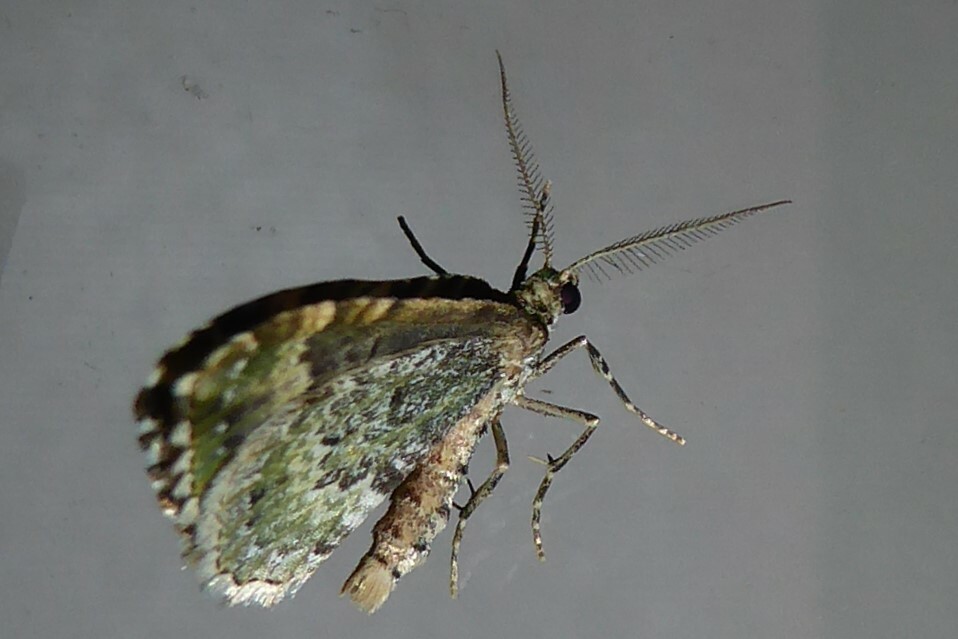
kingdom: Animalia
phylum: Arthropoda
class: Insecta
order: Lepidoptera
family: Geometridae
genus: Asaphodes
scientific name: Asaphodes beata
